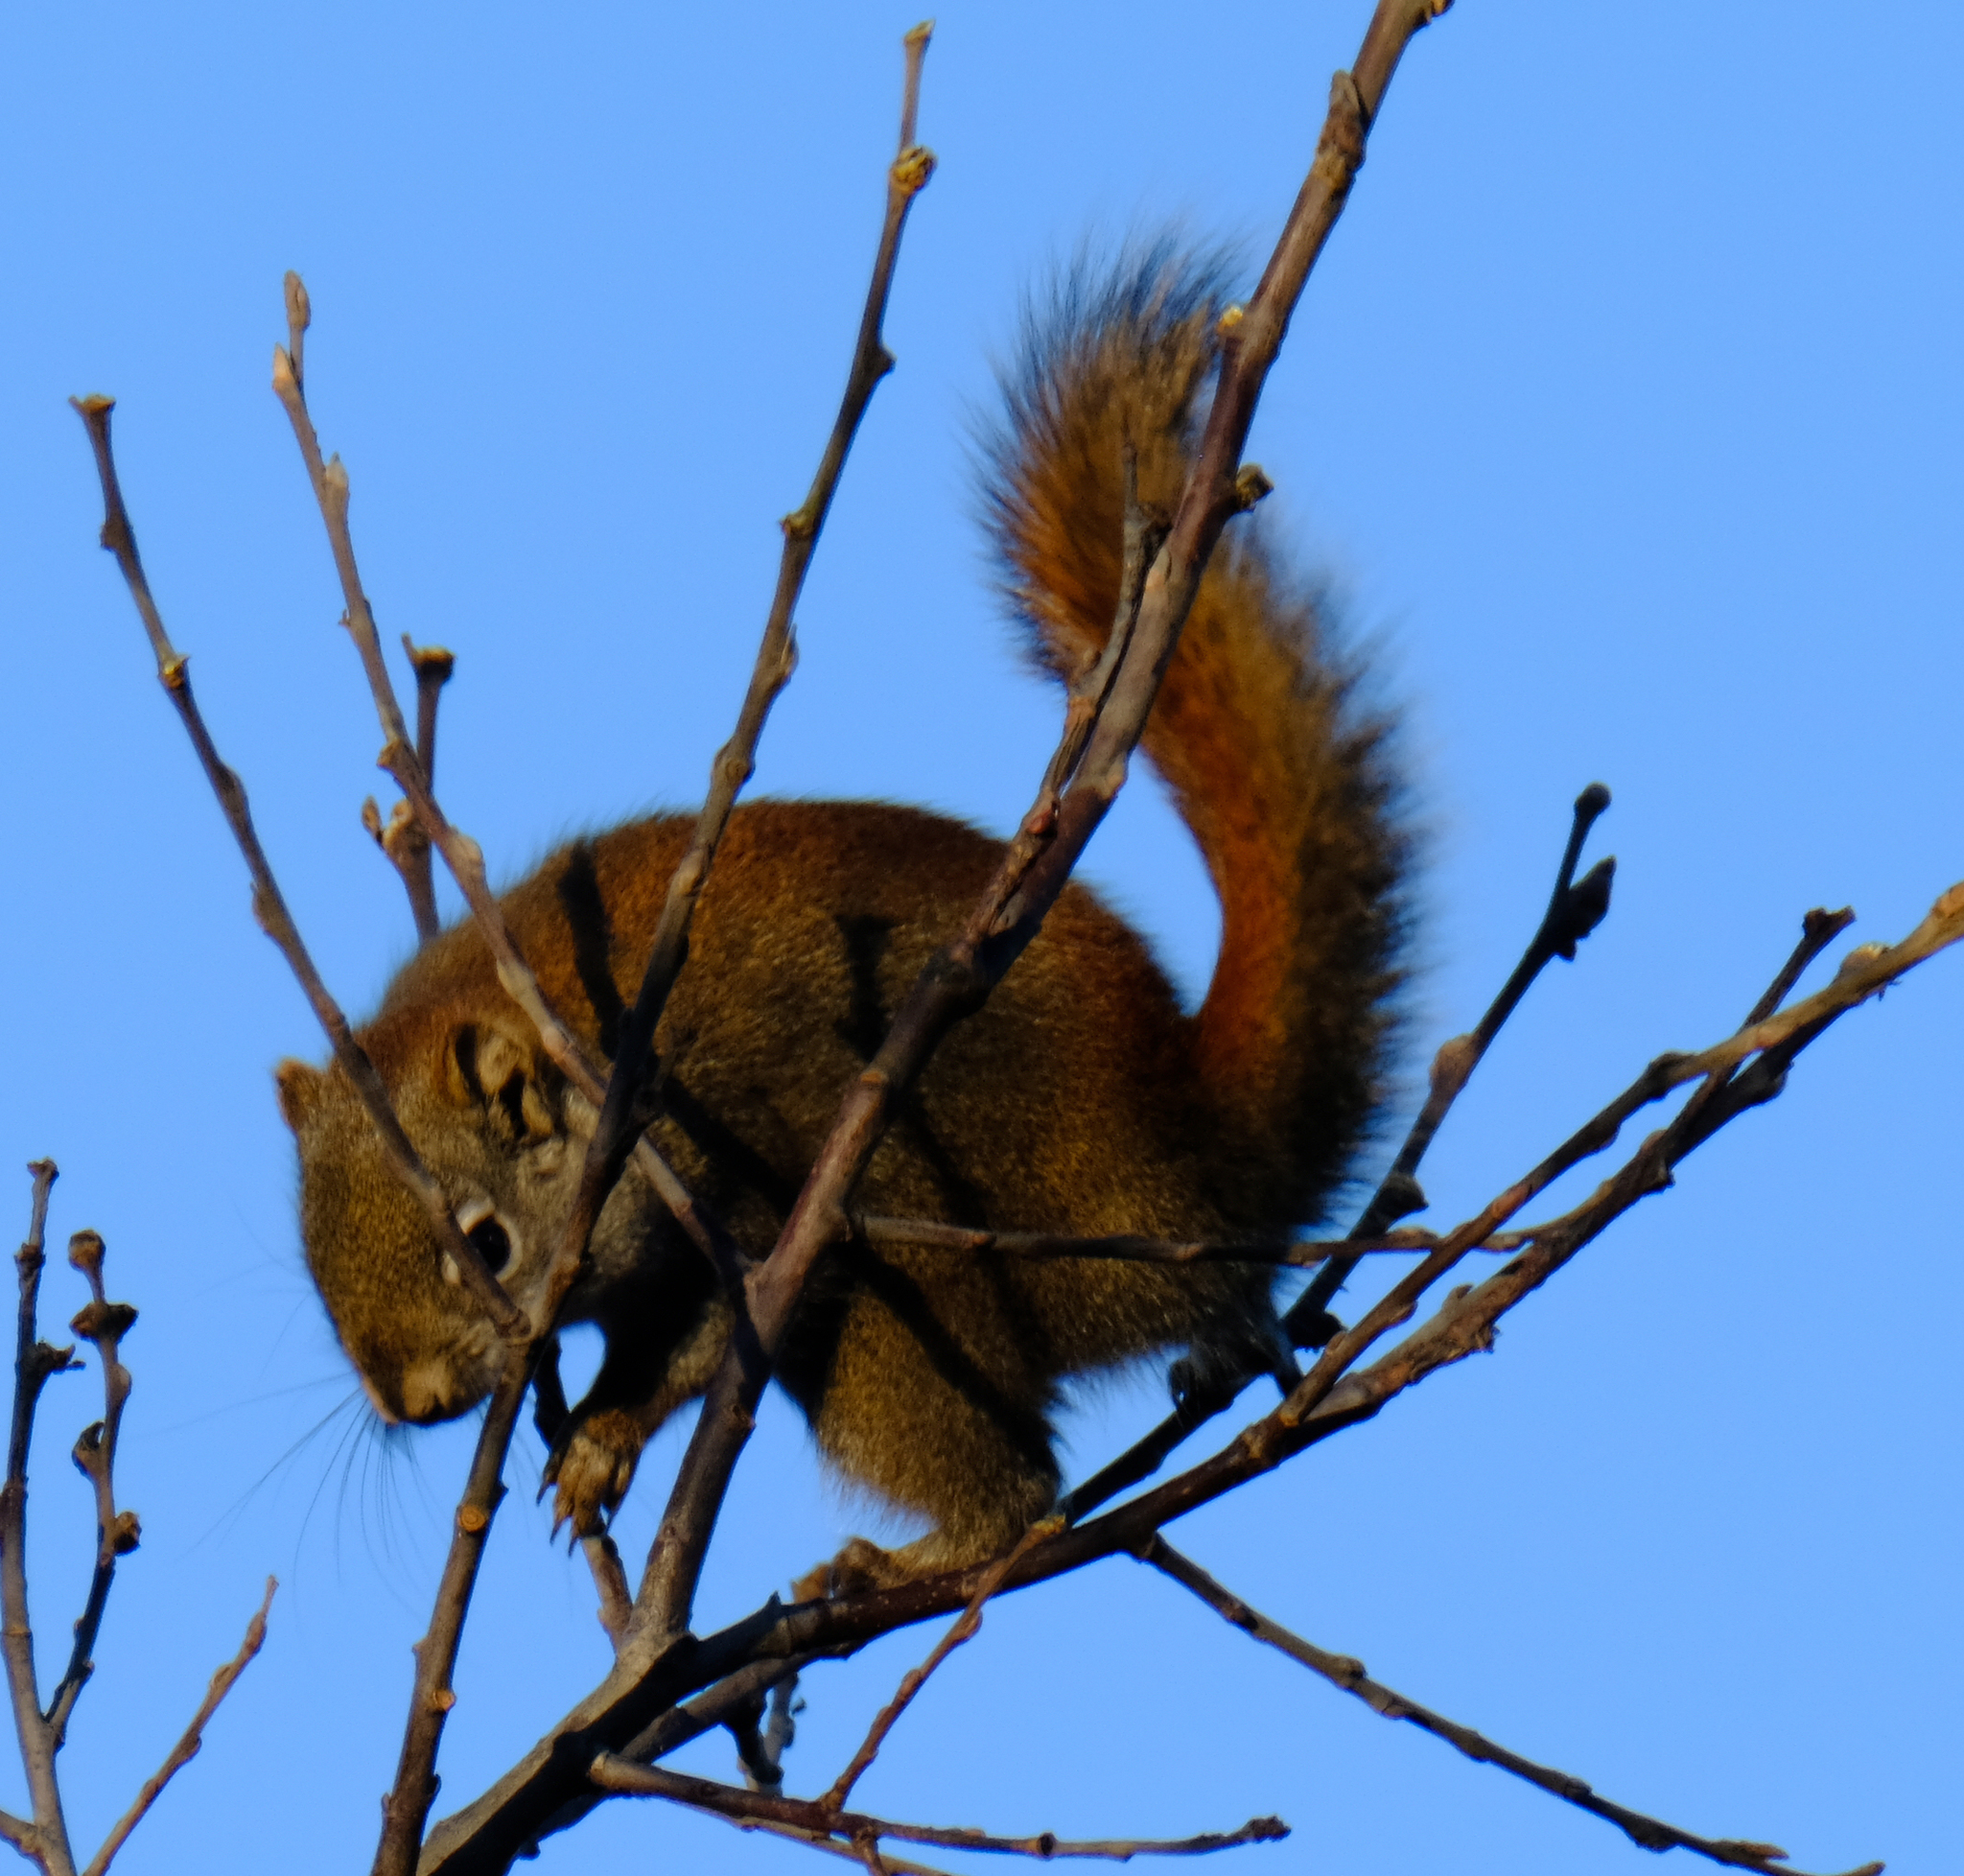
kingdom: Animalia
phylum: Chordata
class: Mammalia
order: Rodentia
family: Sciuridae
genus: Tamiasciurus
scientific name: Tamiasciurus hudsonicus
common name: Red squirrel
